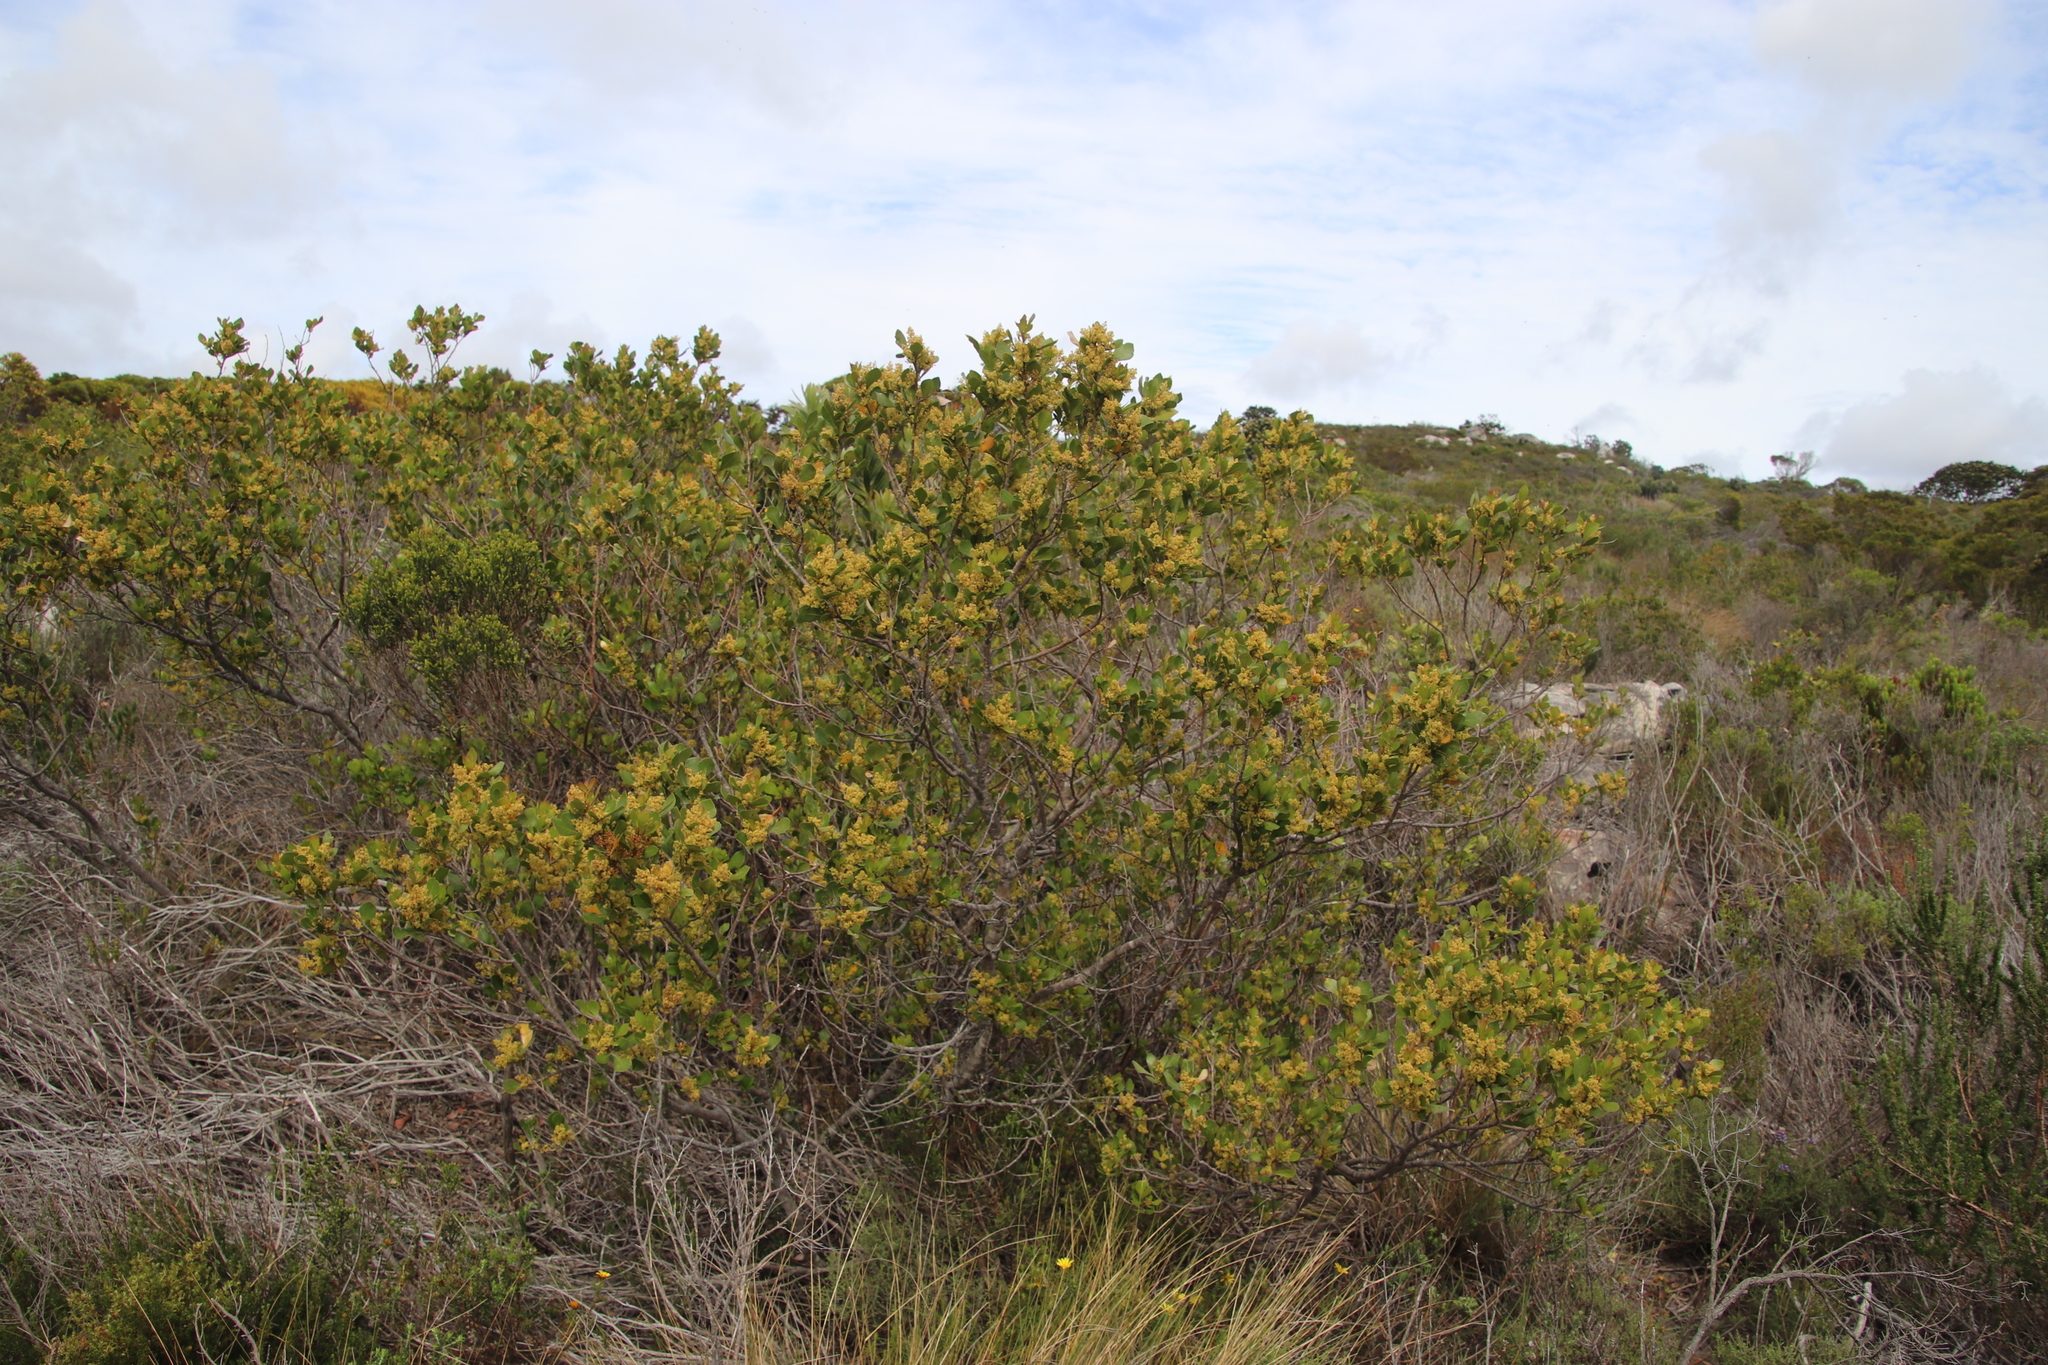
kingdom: Plantae
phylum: Tracheophyta
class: Magnoliopsida
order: Sapindales
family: Anacardiaceae
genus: Searsia
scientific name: Searsia lucida
